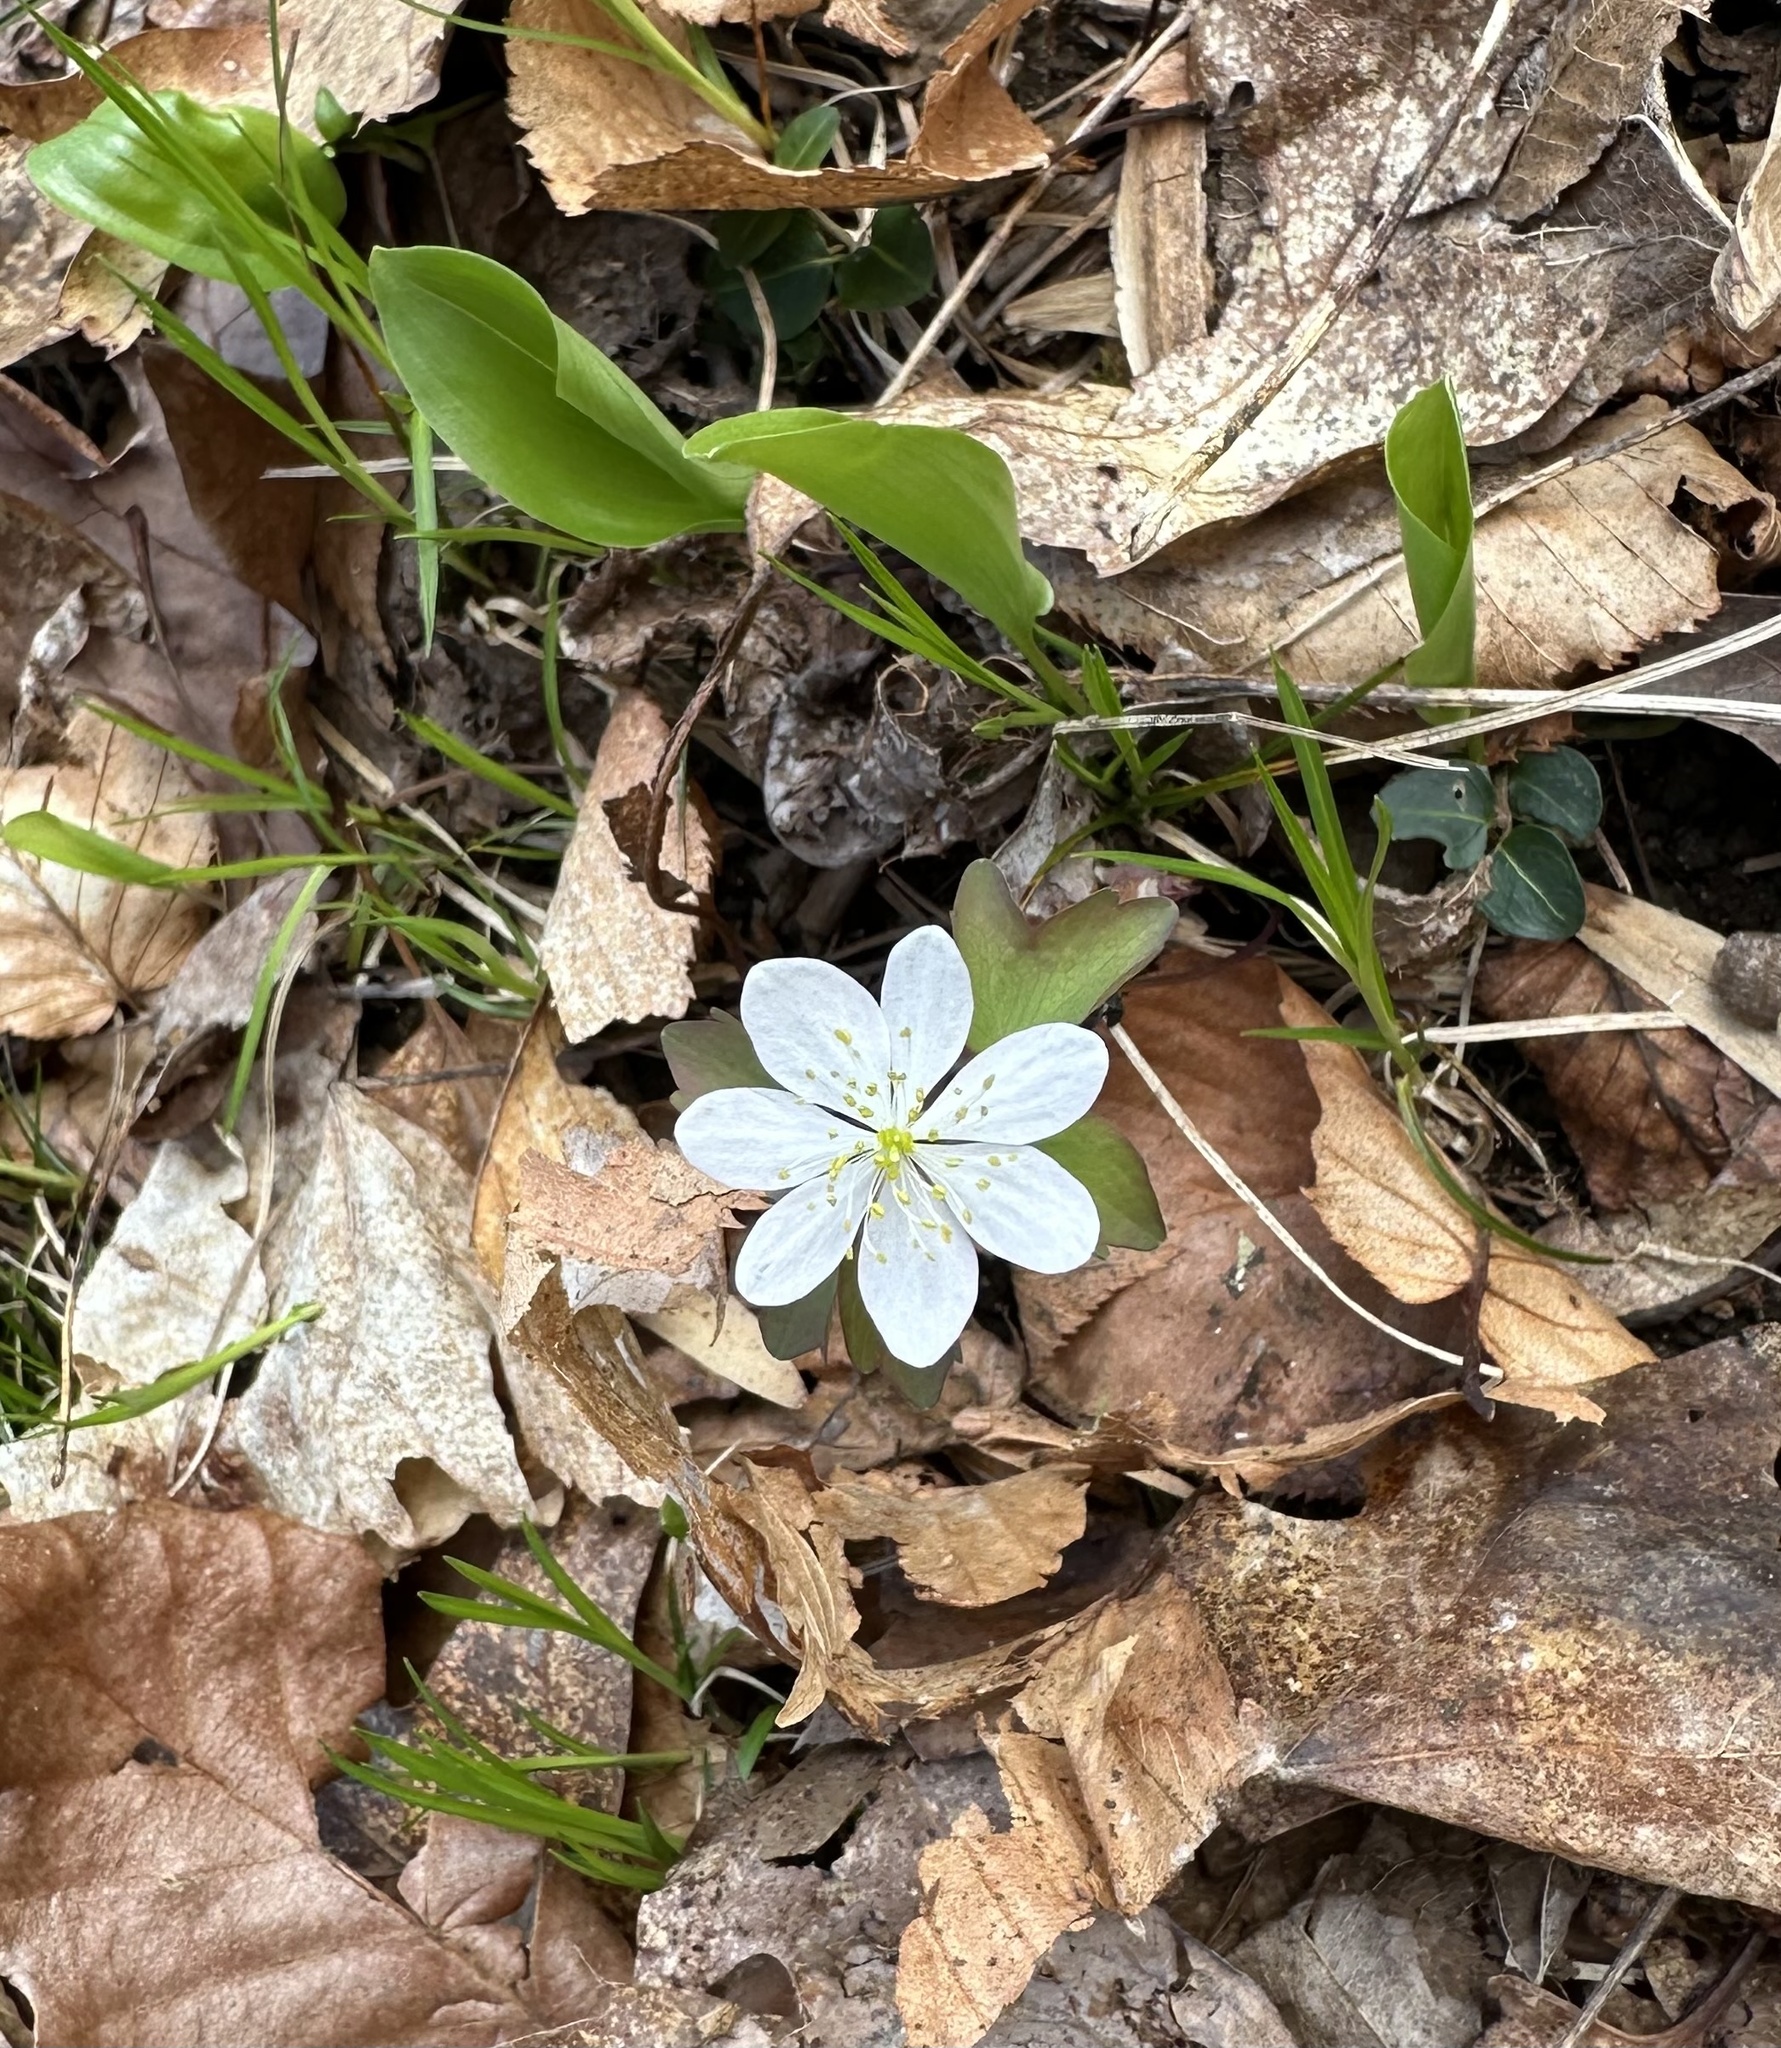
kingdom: Plantae
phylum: Tracheophyta
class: Magnoliopsida
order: Ranunculales
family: Ranunculaceae
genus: Thalictrum
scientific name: Thalictrum thalictroides
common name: Rue-anemone
